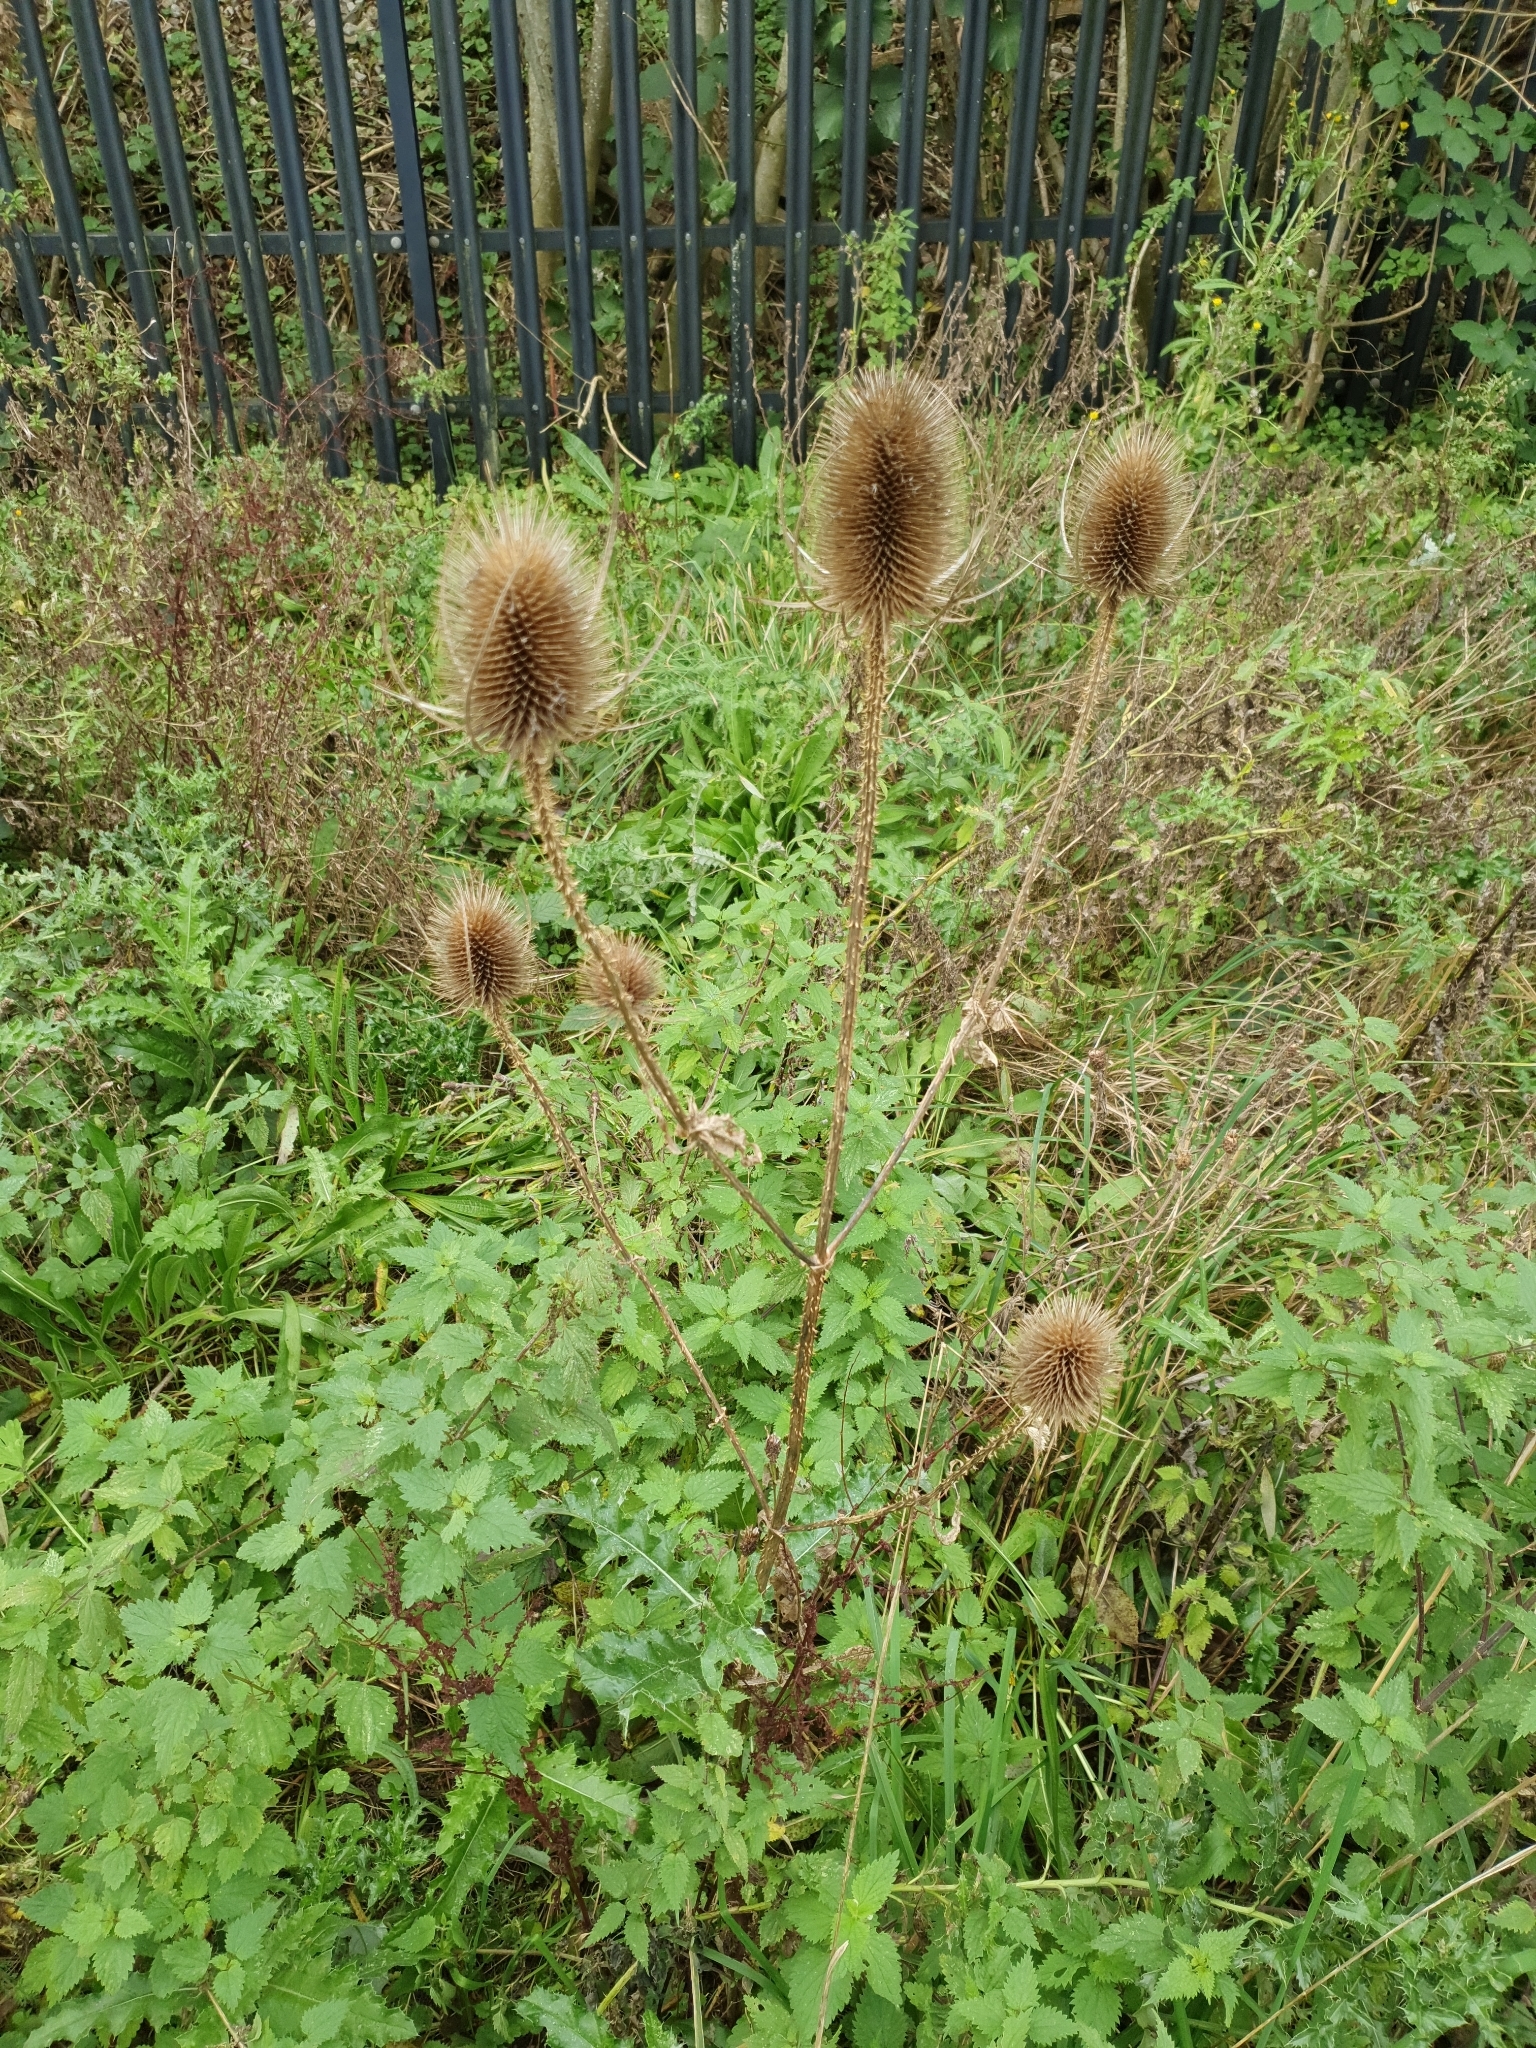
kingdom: Plantae
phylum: Tracheophyta
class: Magnoliopsida
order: Dipsacales
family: Caprifoliaceae
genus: Dipsacus
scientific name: Dipsacus fullonum
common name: Teasel
